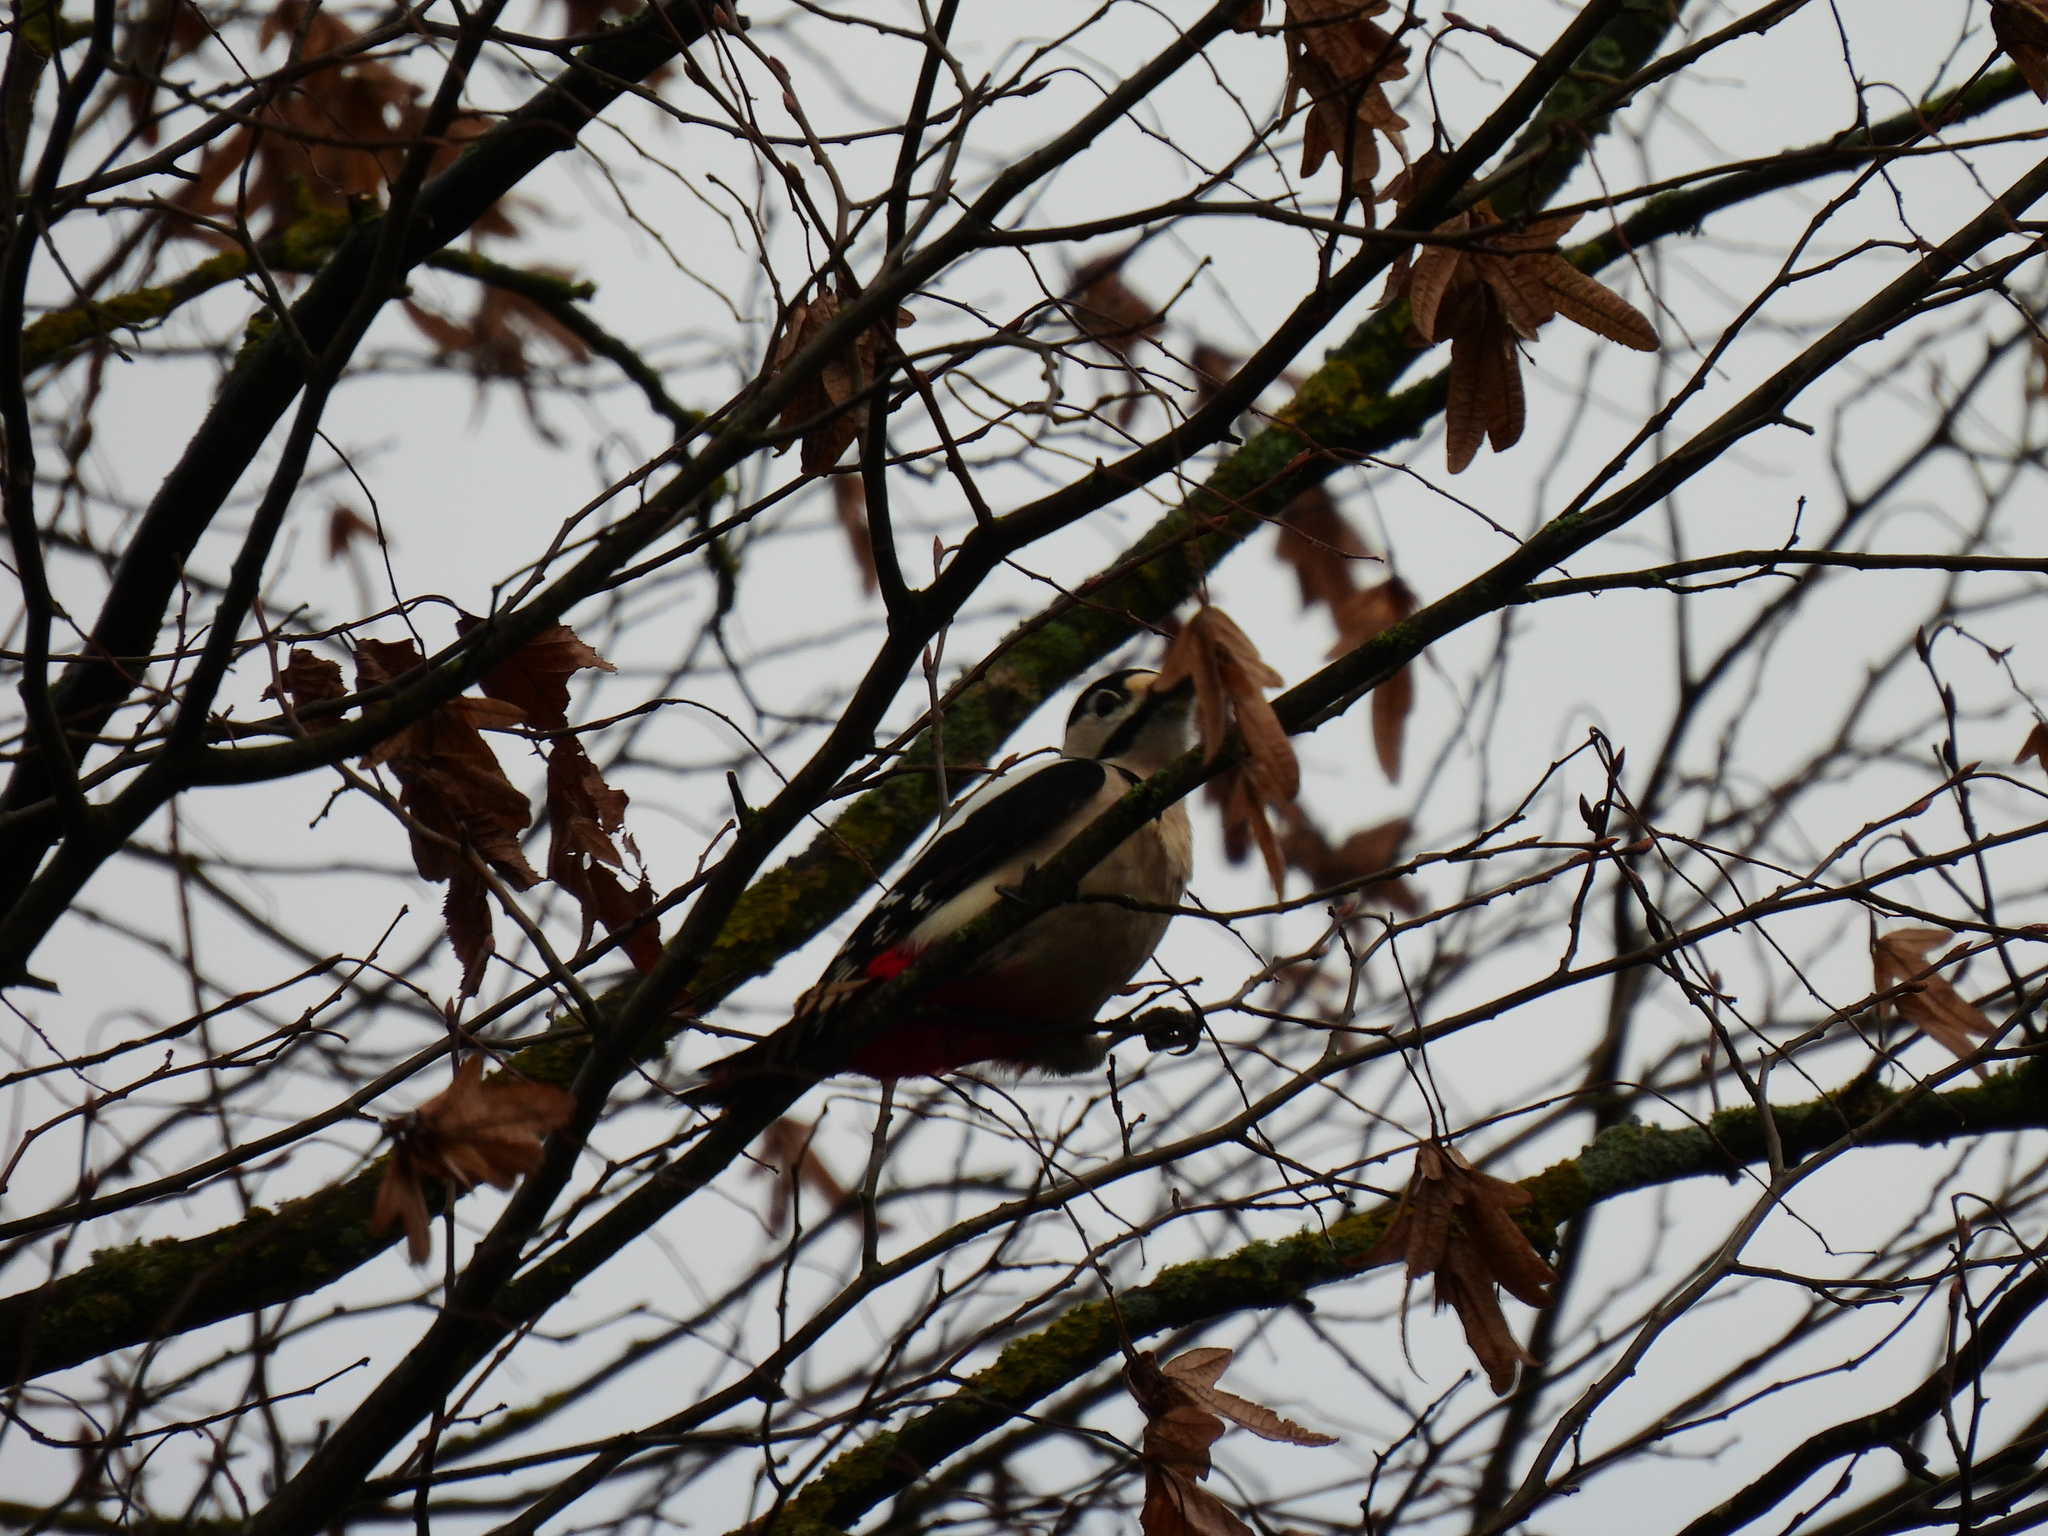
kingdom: Animalia
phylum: Chordata
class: Aves
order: Piciformes
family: Picidae
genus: Dendrocopos
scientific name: Dendrocopos major
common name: Great spotted woodpecker
